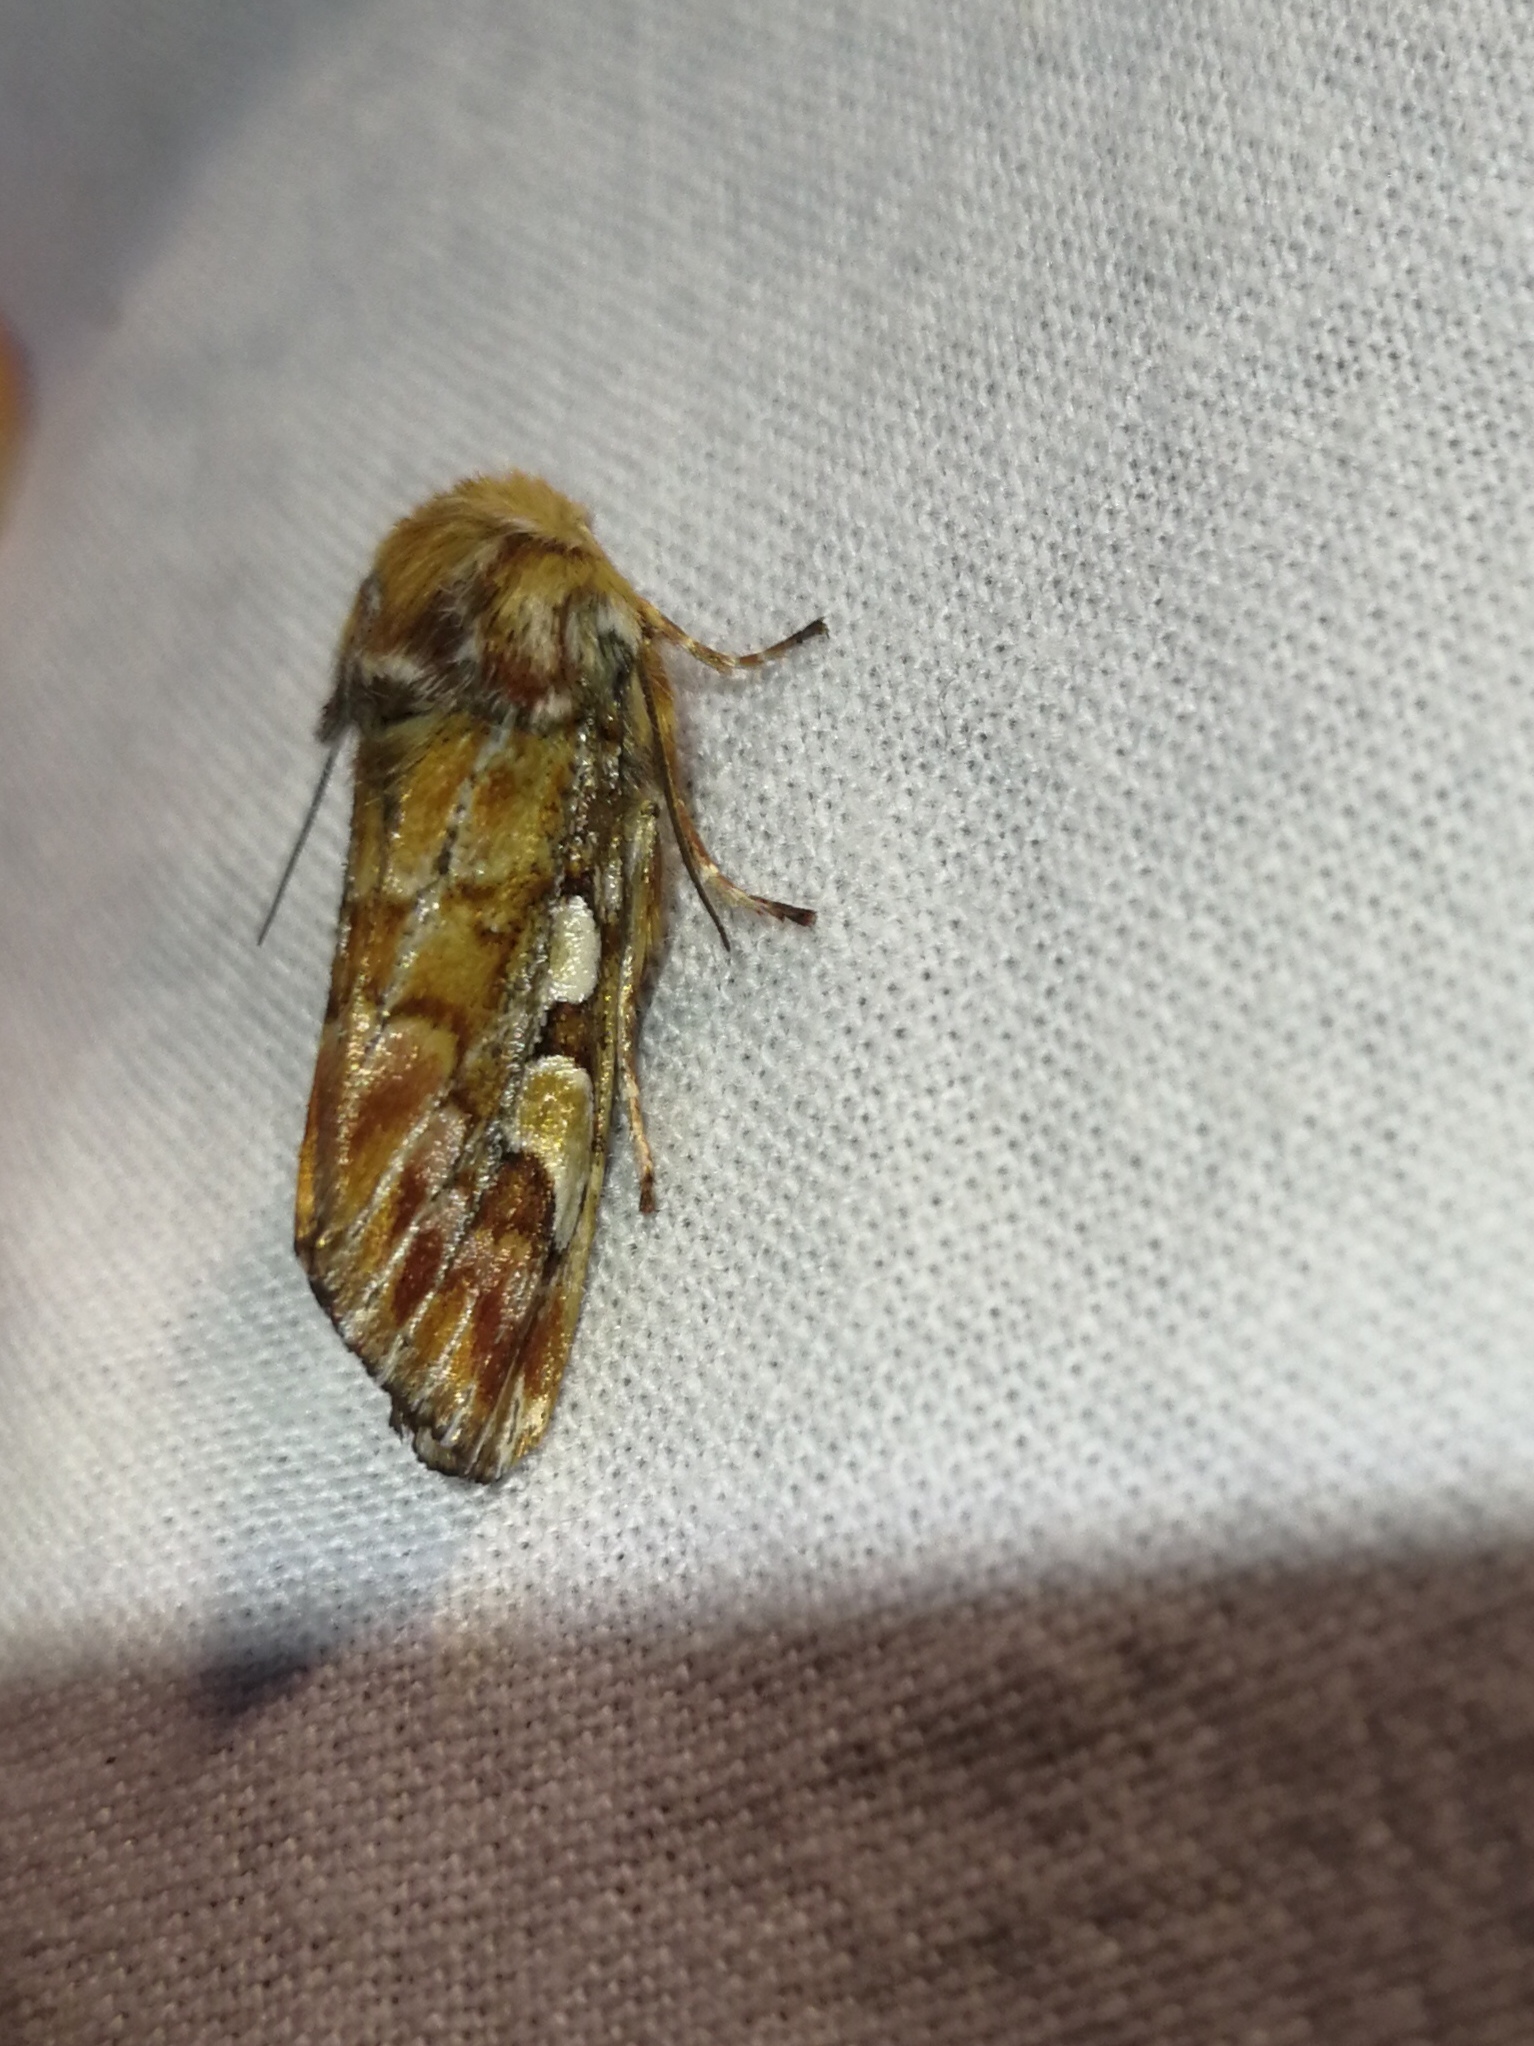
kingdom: Animalia
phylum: Arthropoda
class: Insecta
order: Lepidoptera
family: Noctuidae
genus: Panolis
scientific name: Panolis flammea
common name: Pine beauty
